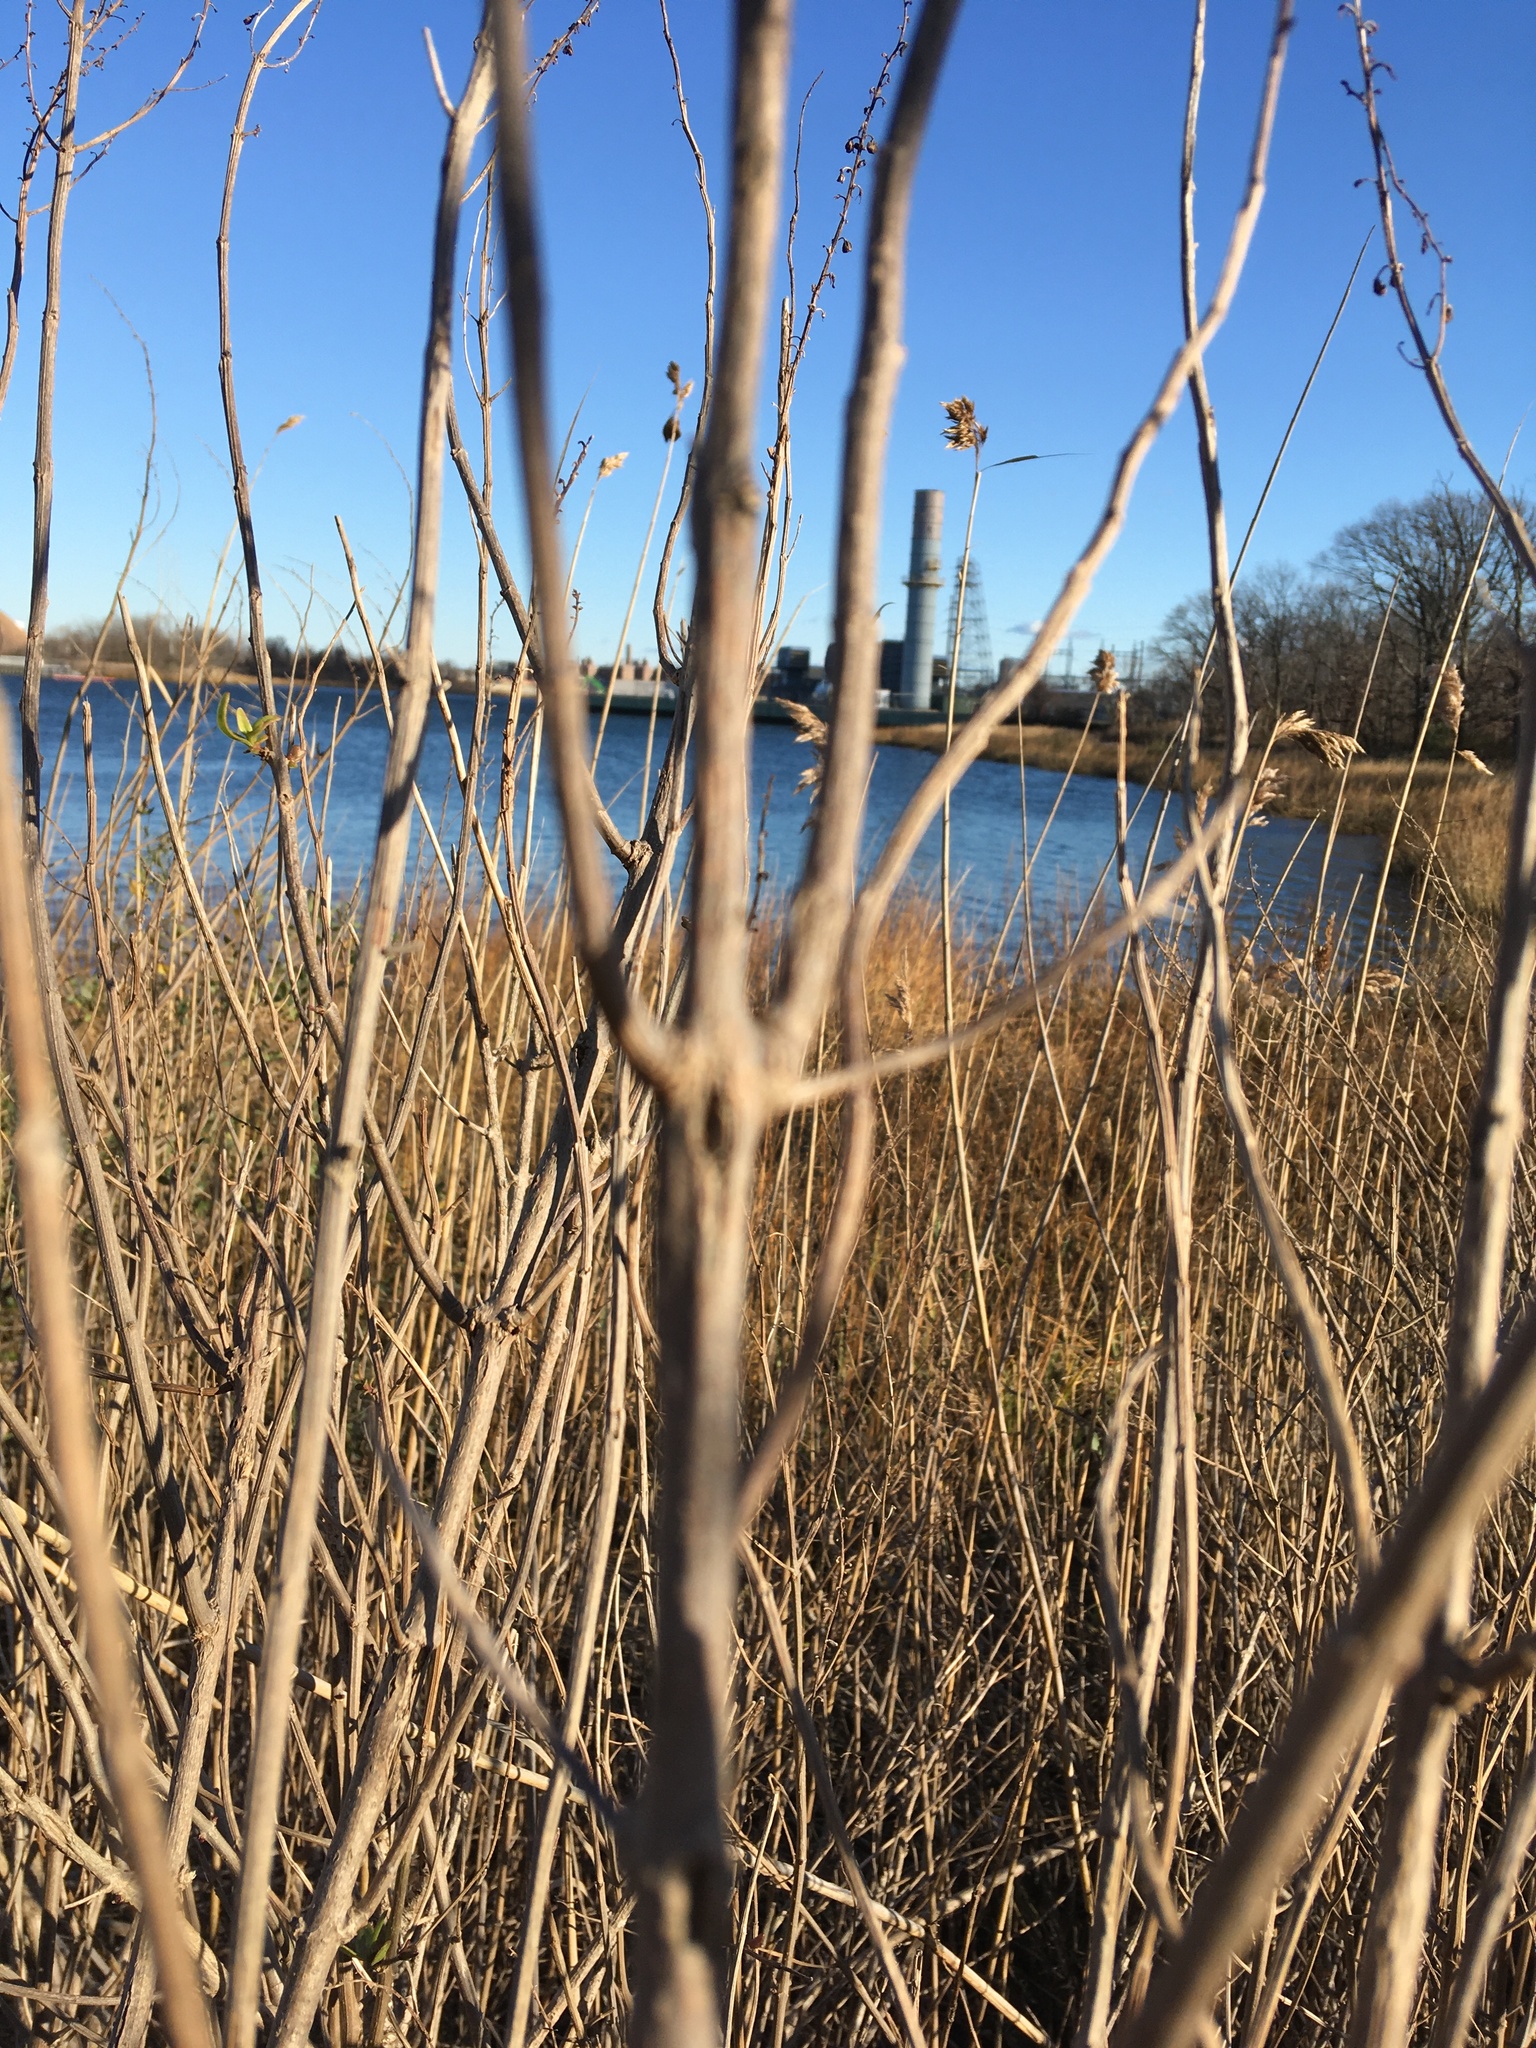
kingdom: Plantae
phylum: Tracheophyta
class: Magnoliopsida
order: Asterales
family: Asteraceae
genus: Iva
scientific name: Iva frutescens
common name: Big-leaved marsh-elder
